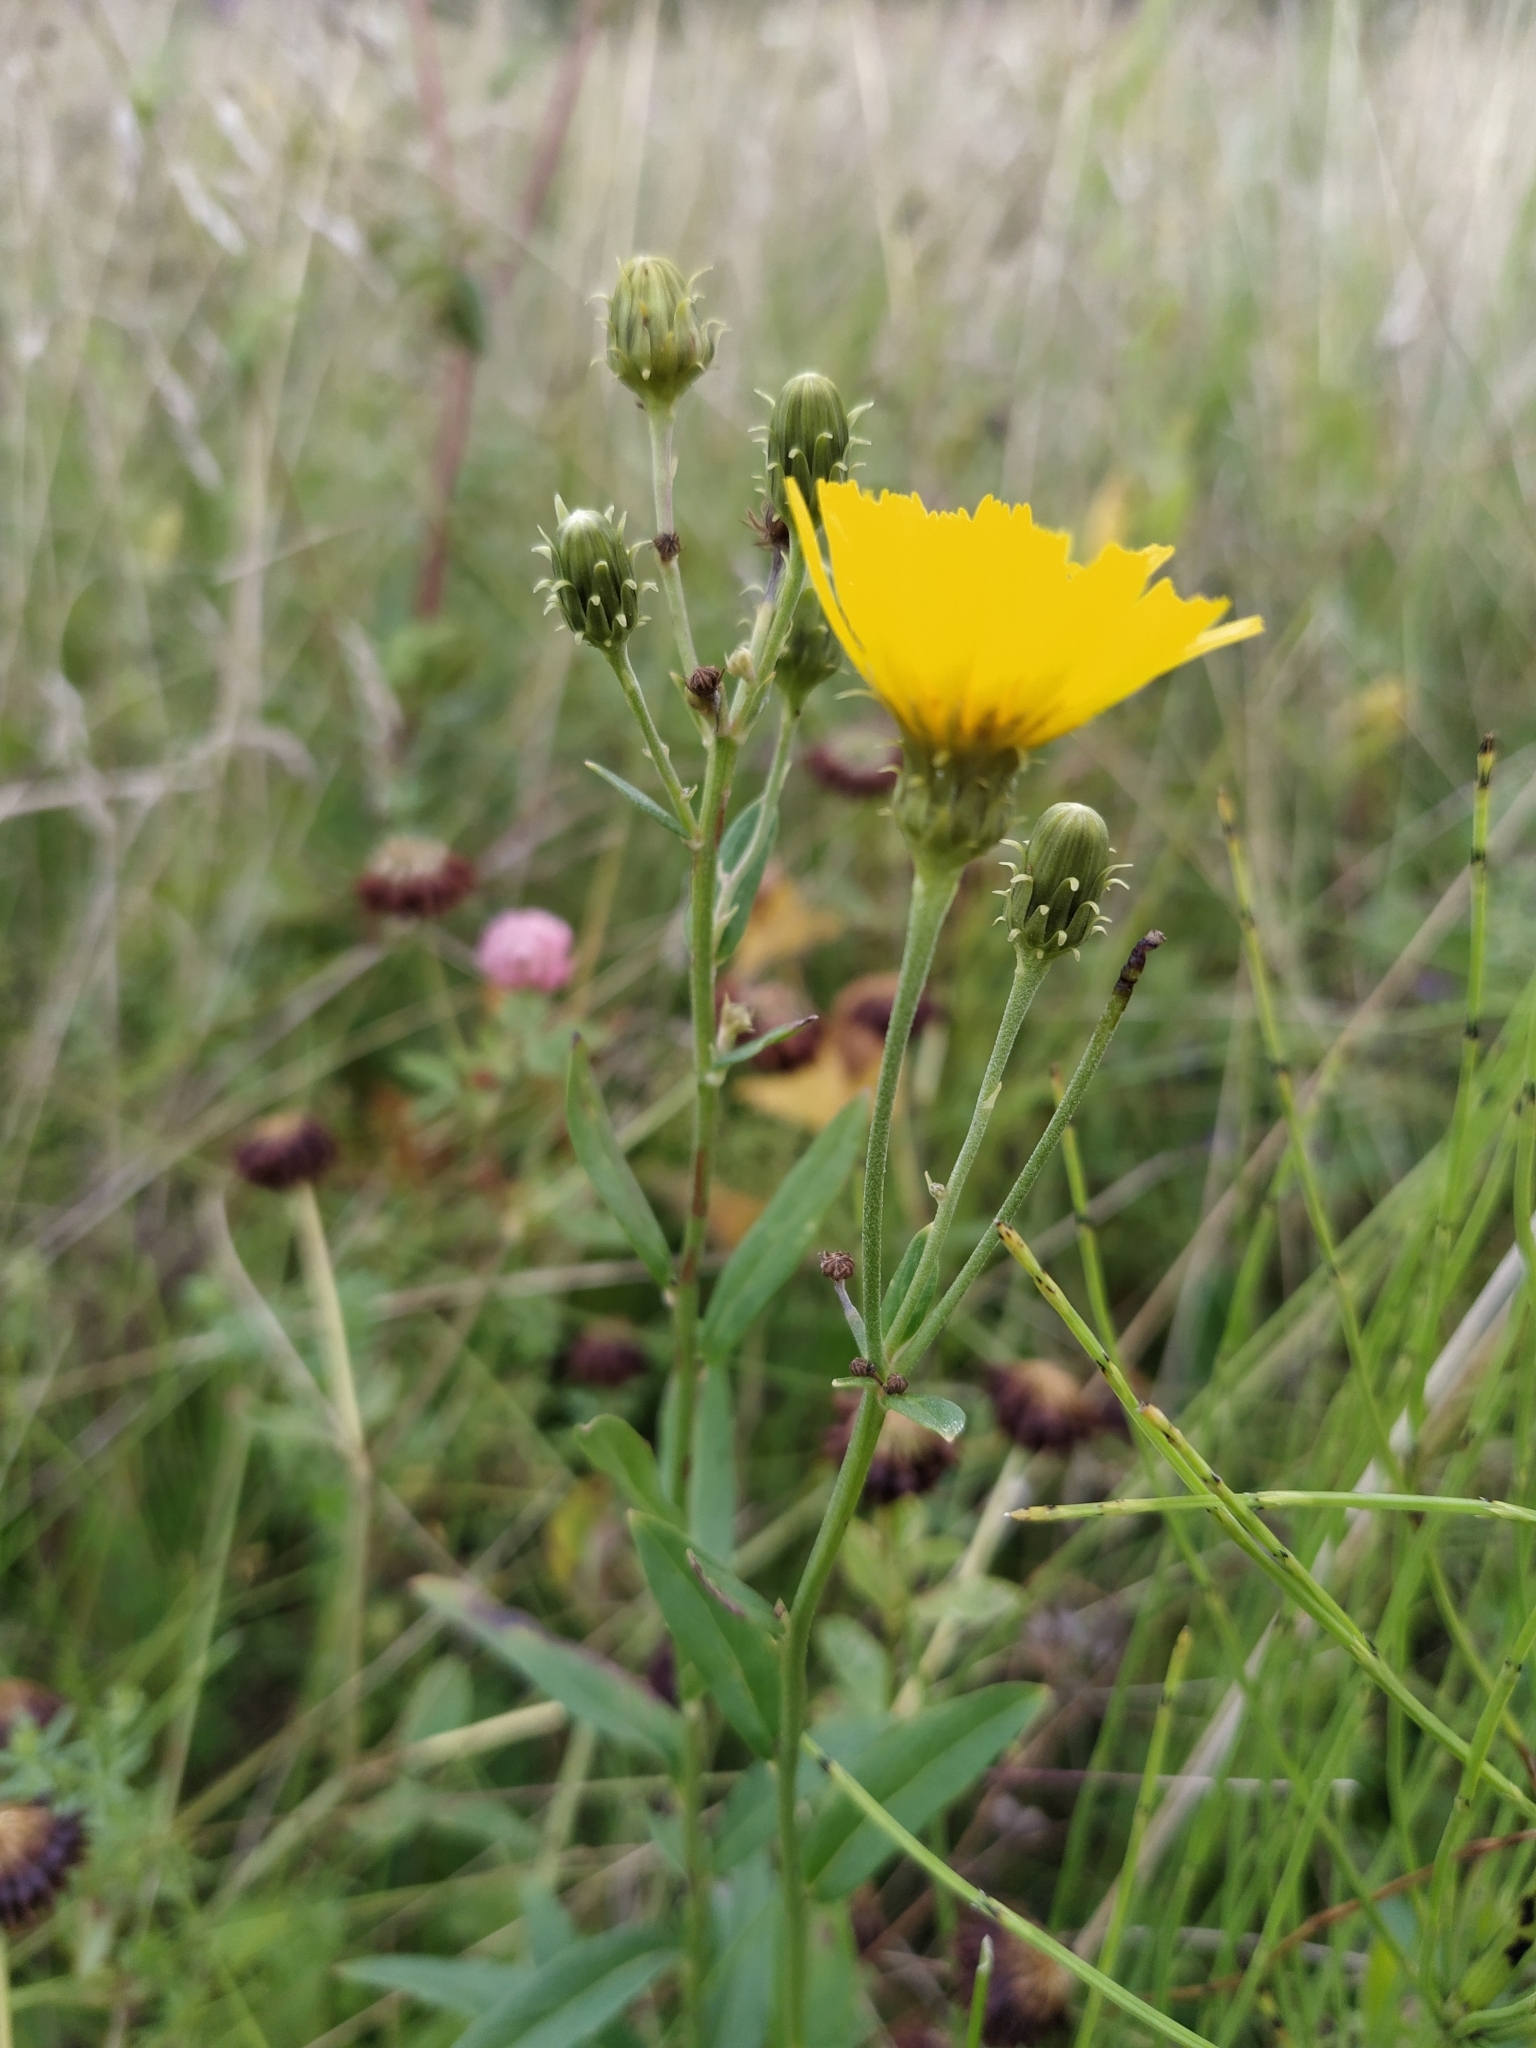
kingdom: Plantae
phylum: Tracheophyta
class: Magnoliopsida
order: Asterales
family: Asteraceae
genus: Hieracium
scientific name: Hieracium umbellatum
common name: Northern hawkweed
